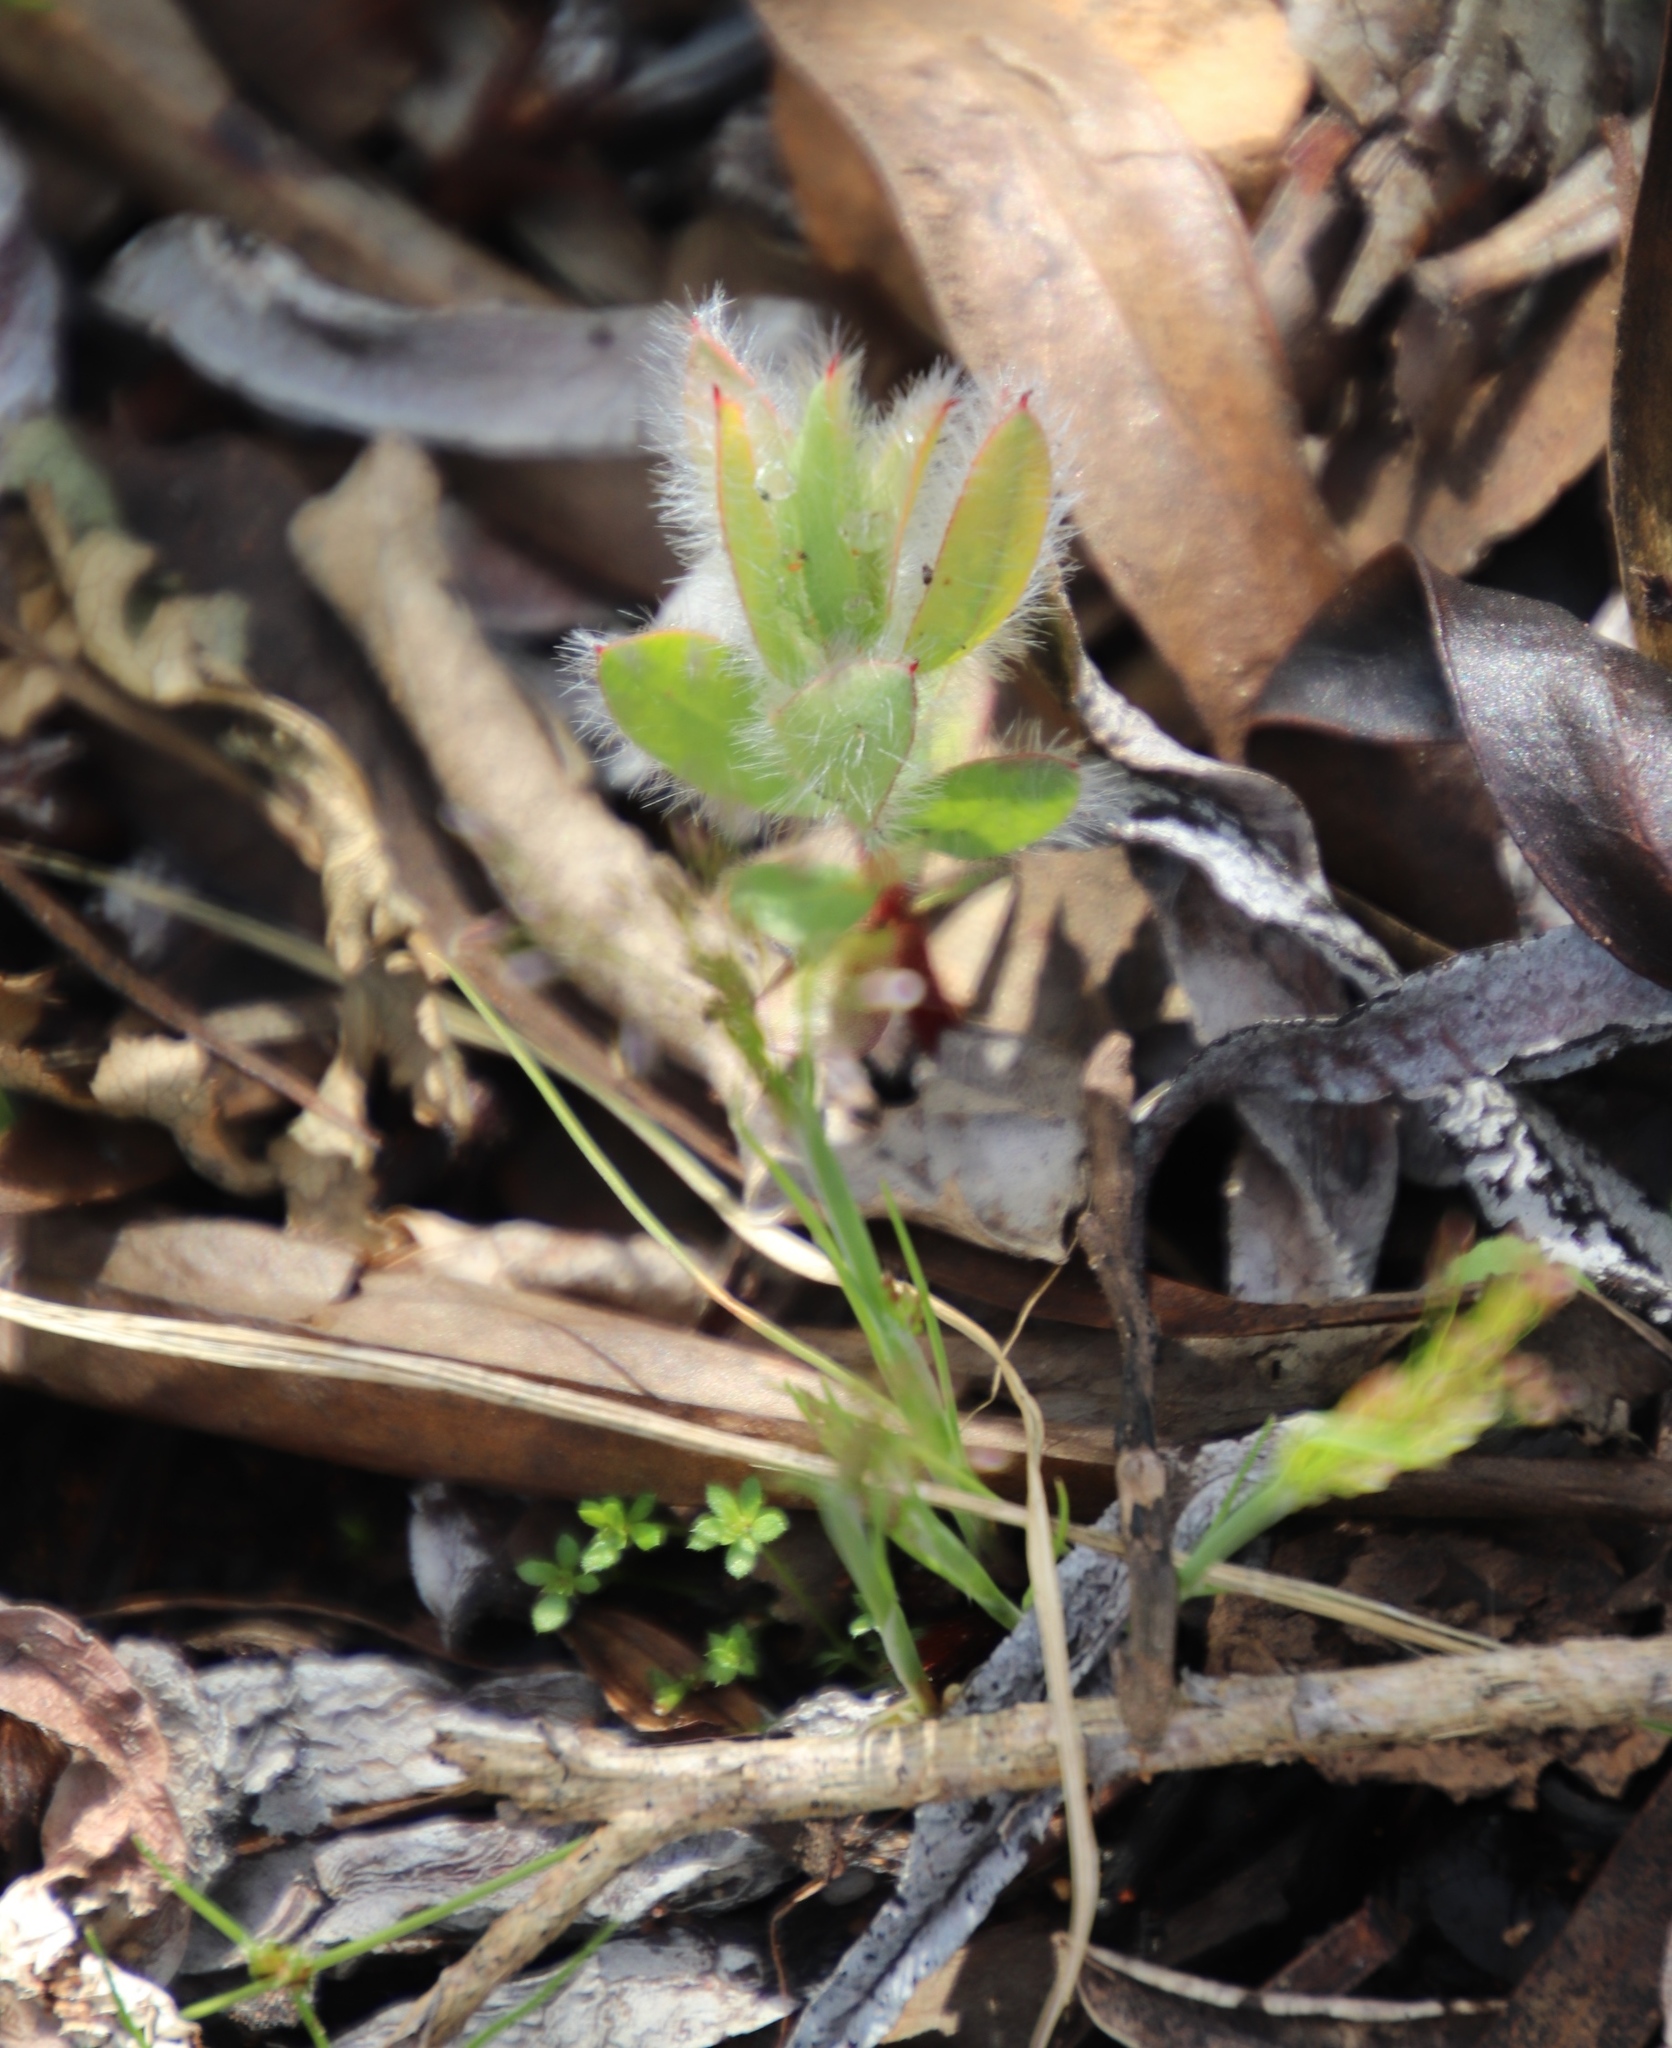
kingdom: Plantae
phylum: Tracheophyta
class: Magnoliopsida
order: Proteales
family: Proteaceae
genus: Protea
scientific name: Protea burchellii
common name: Burchell's sugarbush
